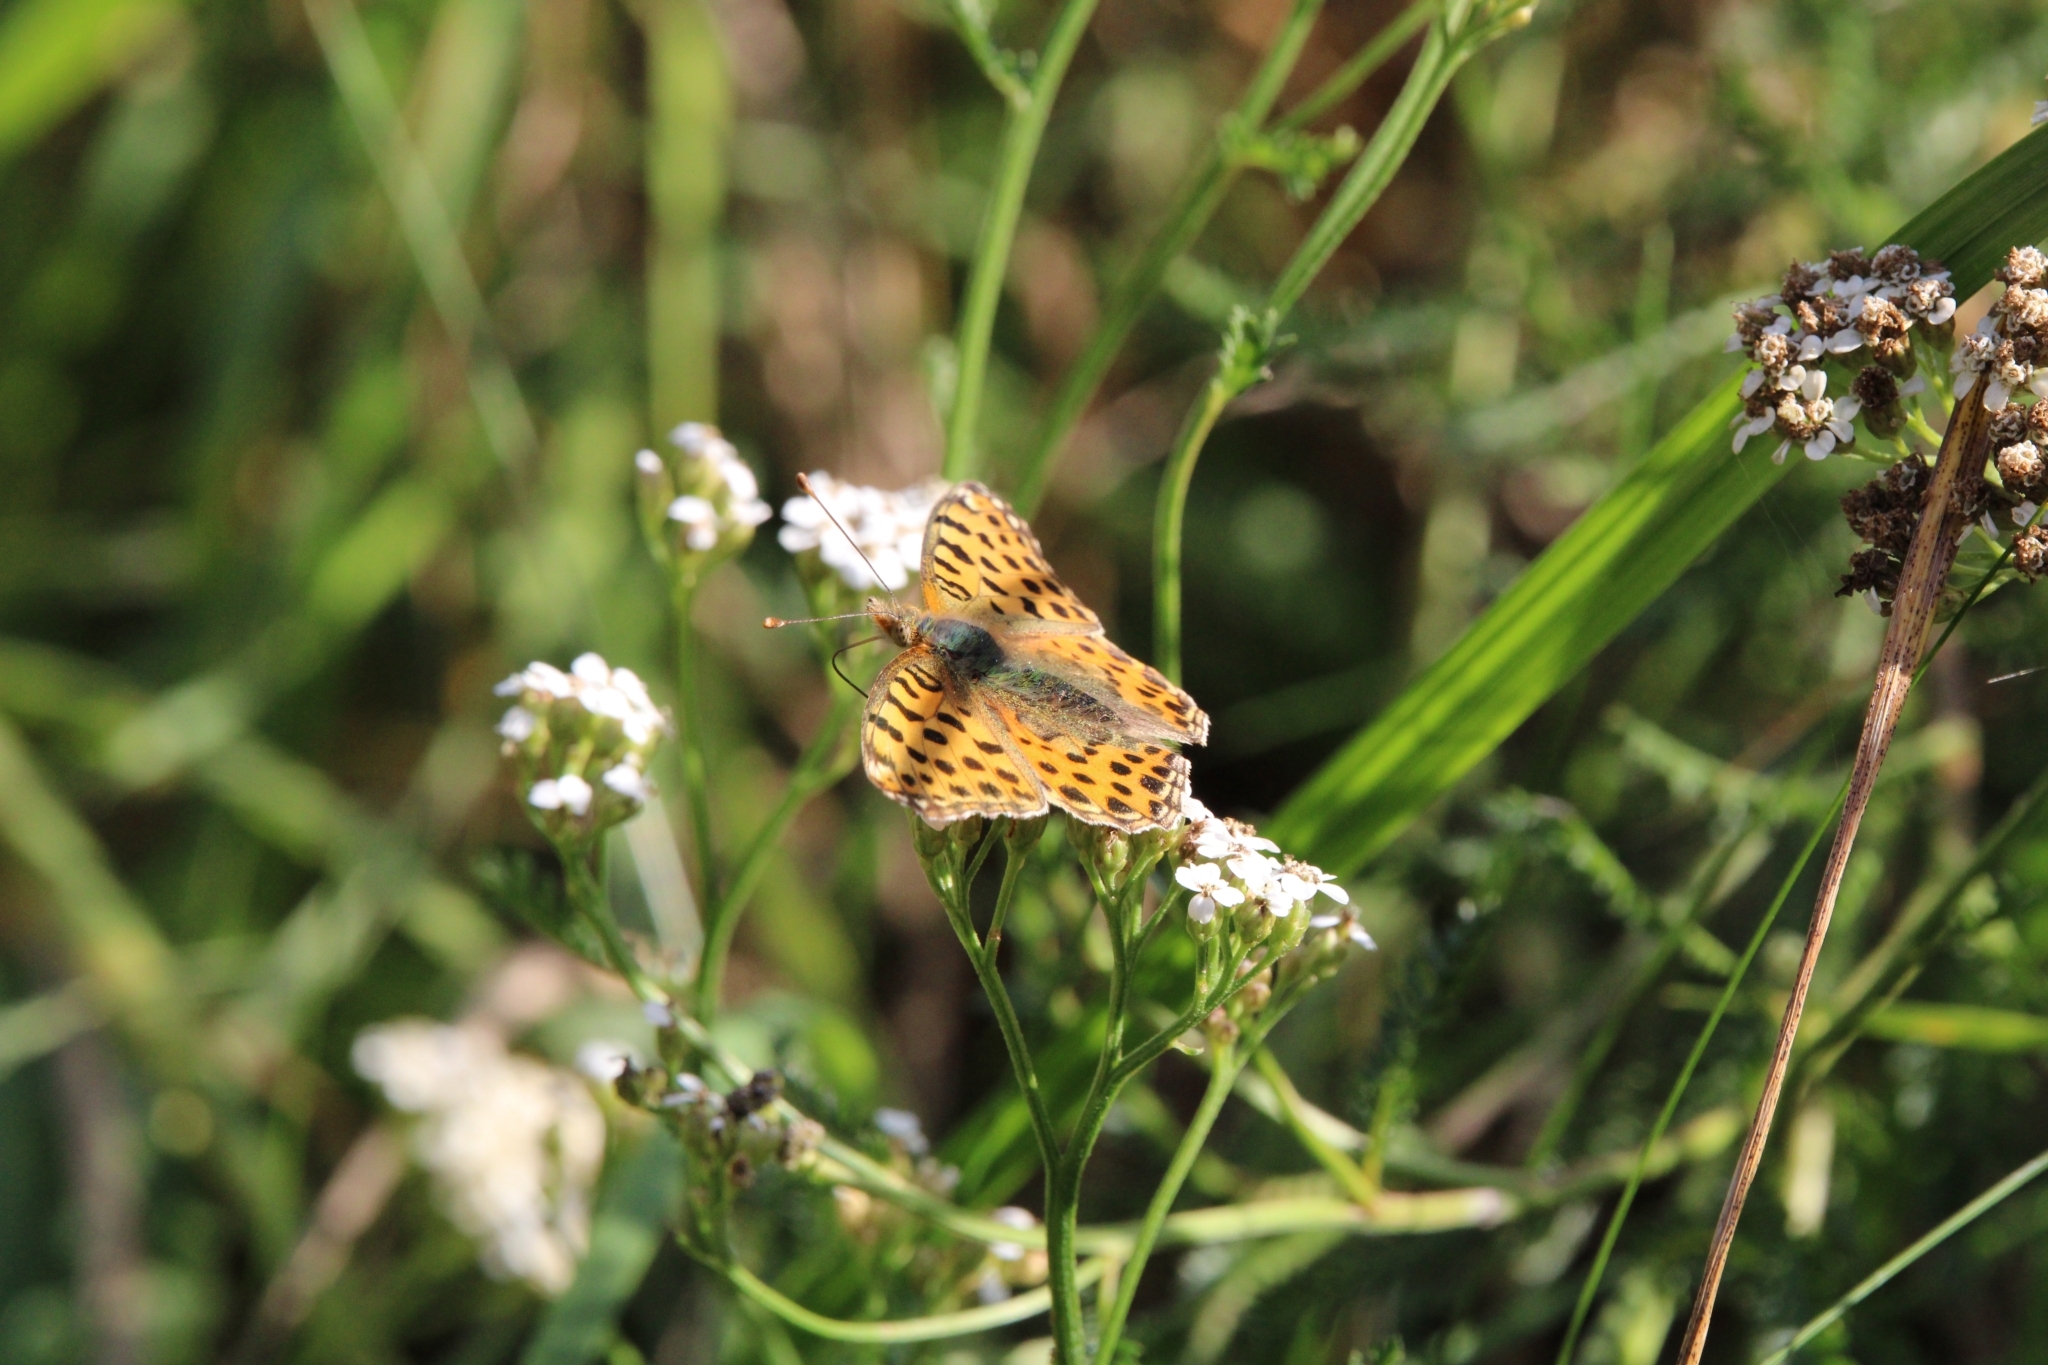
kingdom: Animalia
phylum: Arthropoda
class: Insecta
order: Lepidoptera
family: Nymphalidae
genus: Issoria
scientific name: Issoria lathonia
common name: Queen of spain fritillary
